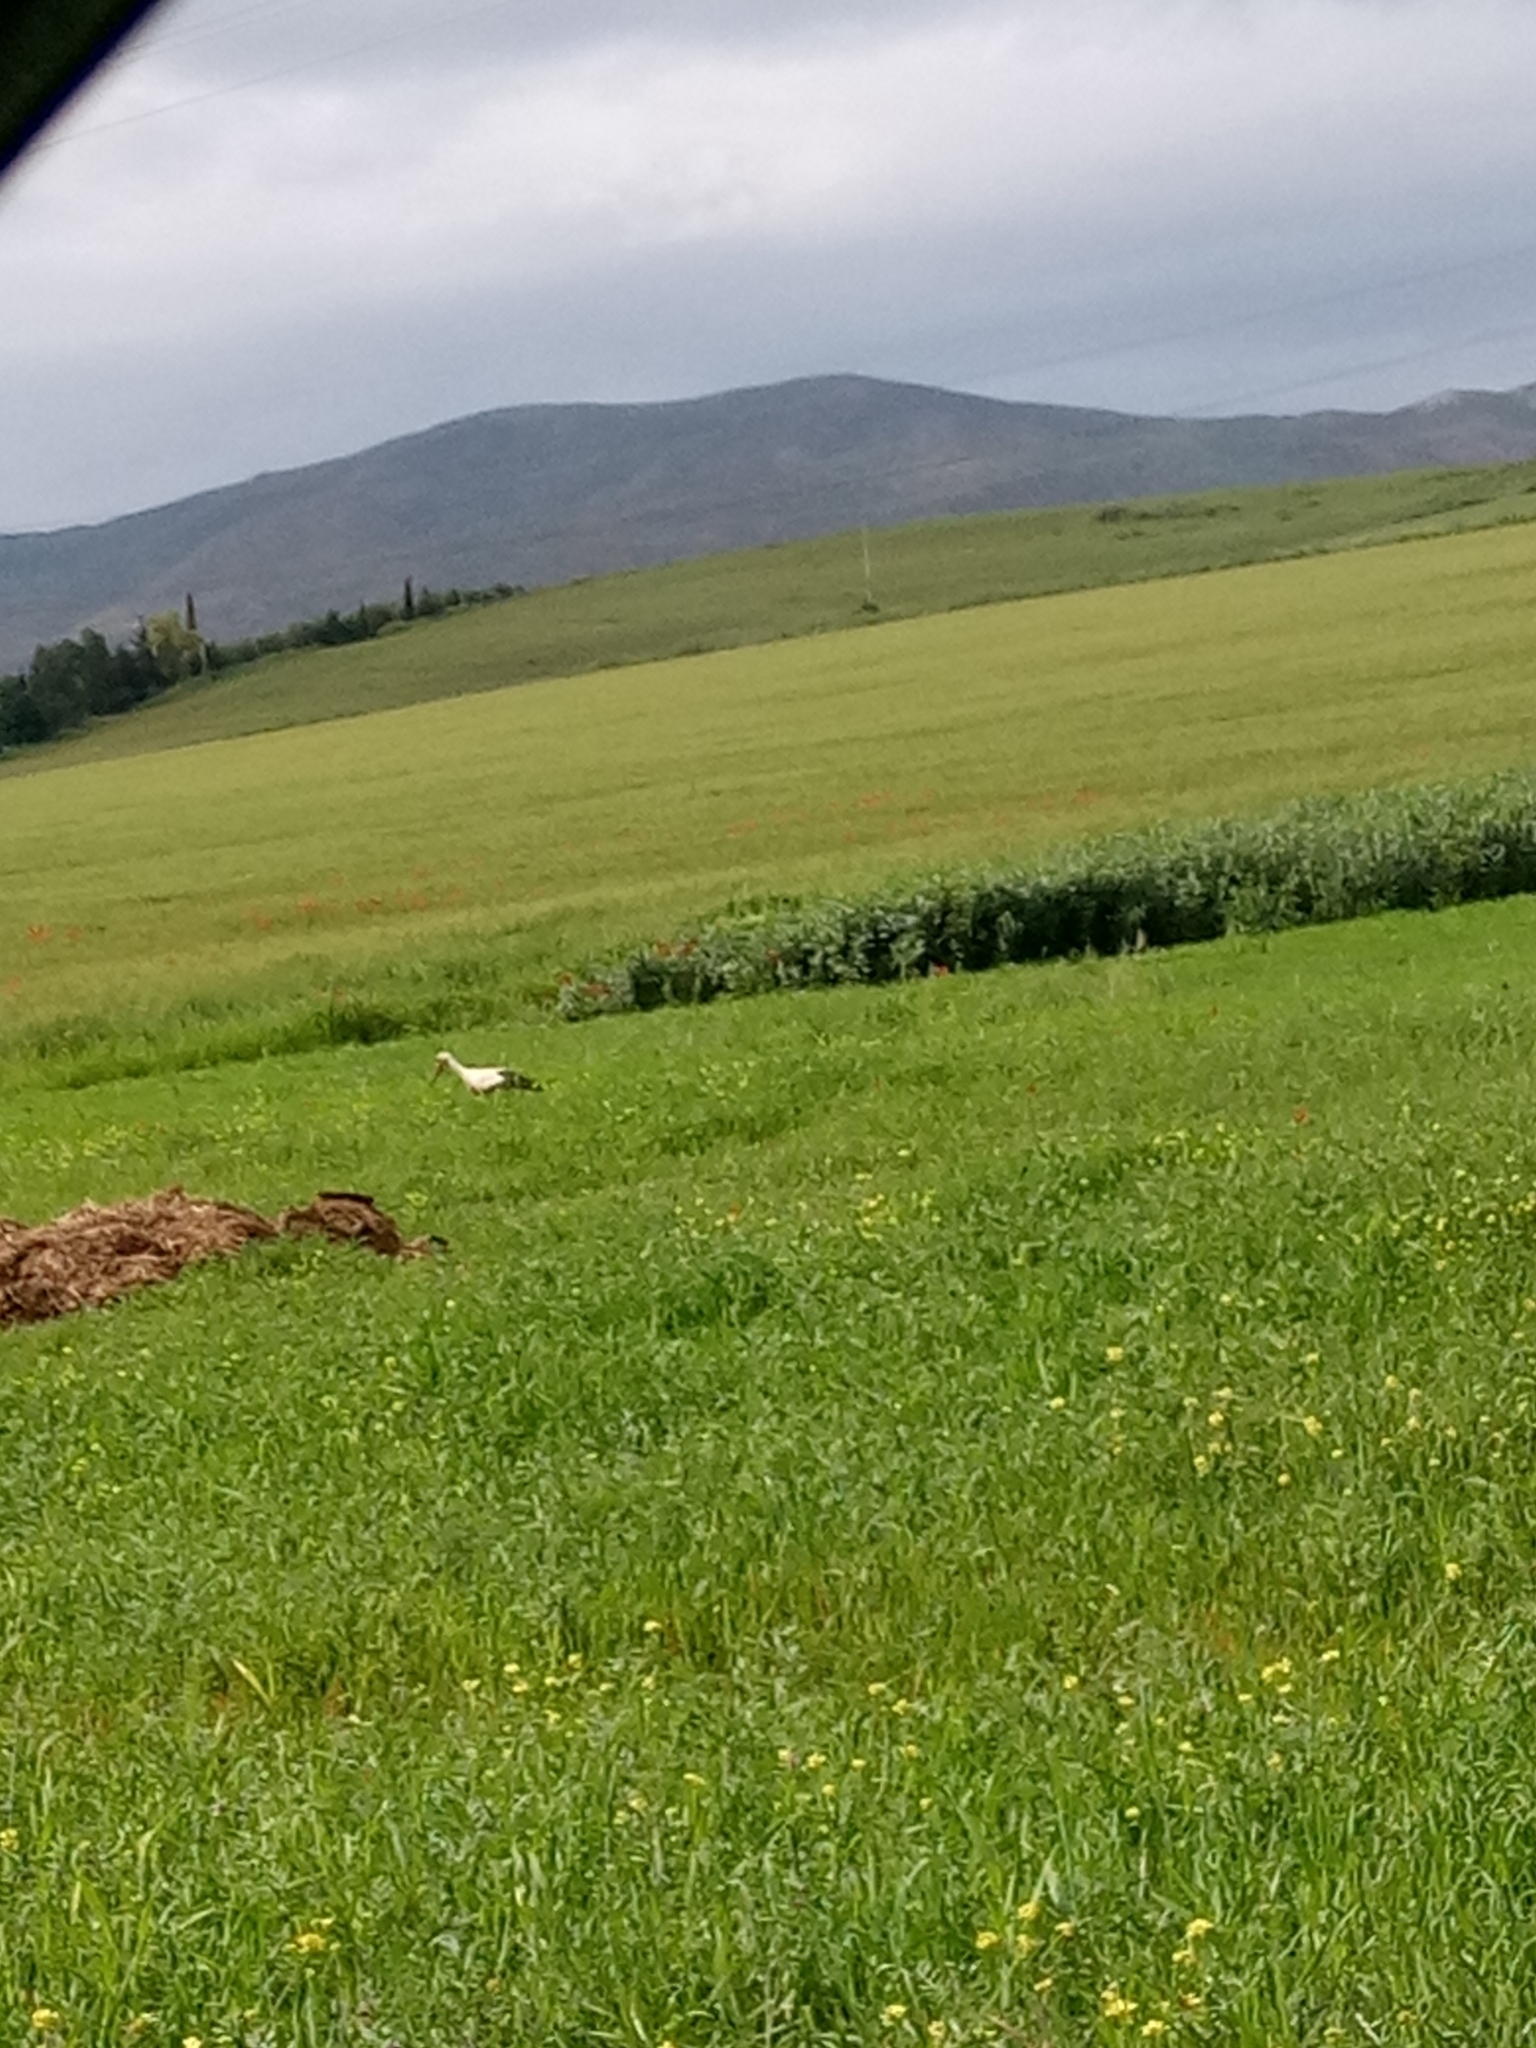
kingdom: Animalia
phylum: Chordata
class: Aves
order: Ciconiiformes
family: Ciconiidae
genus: Ciconia
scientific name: Ciconia ciconia
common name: White stork
